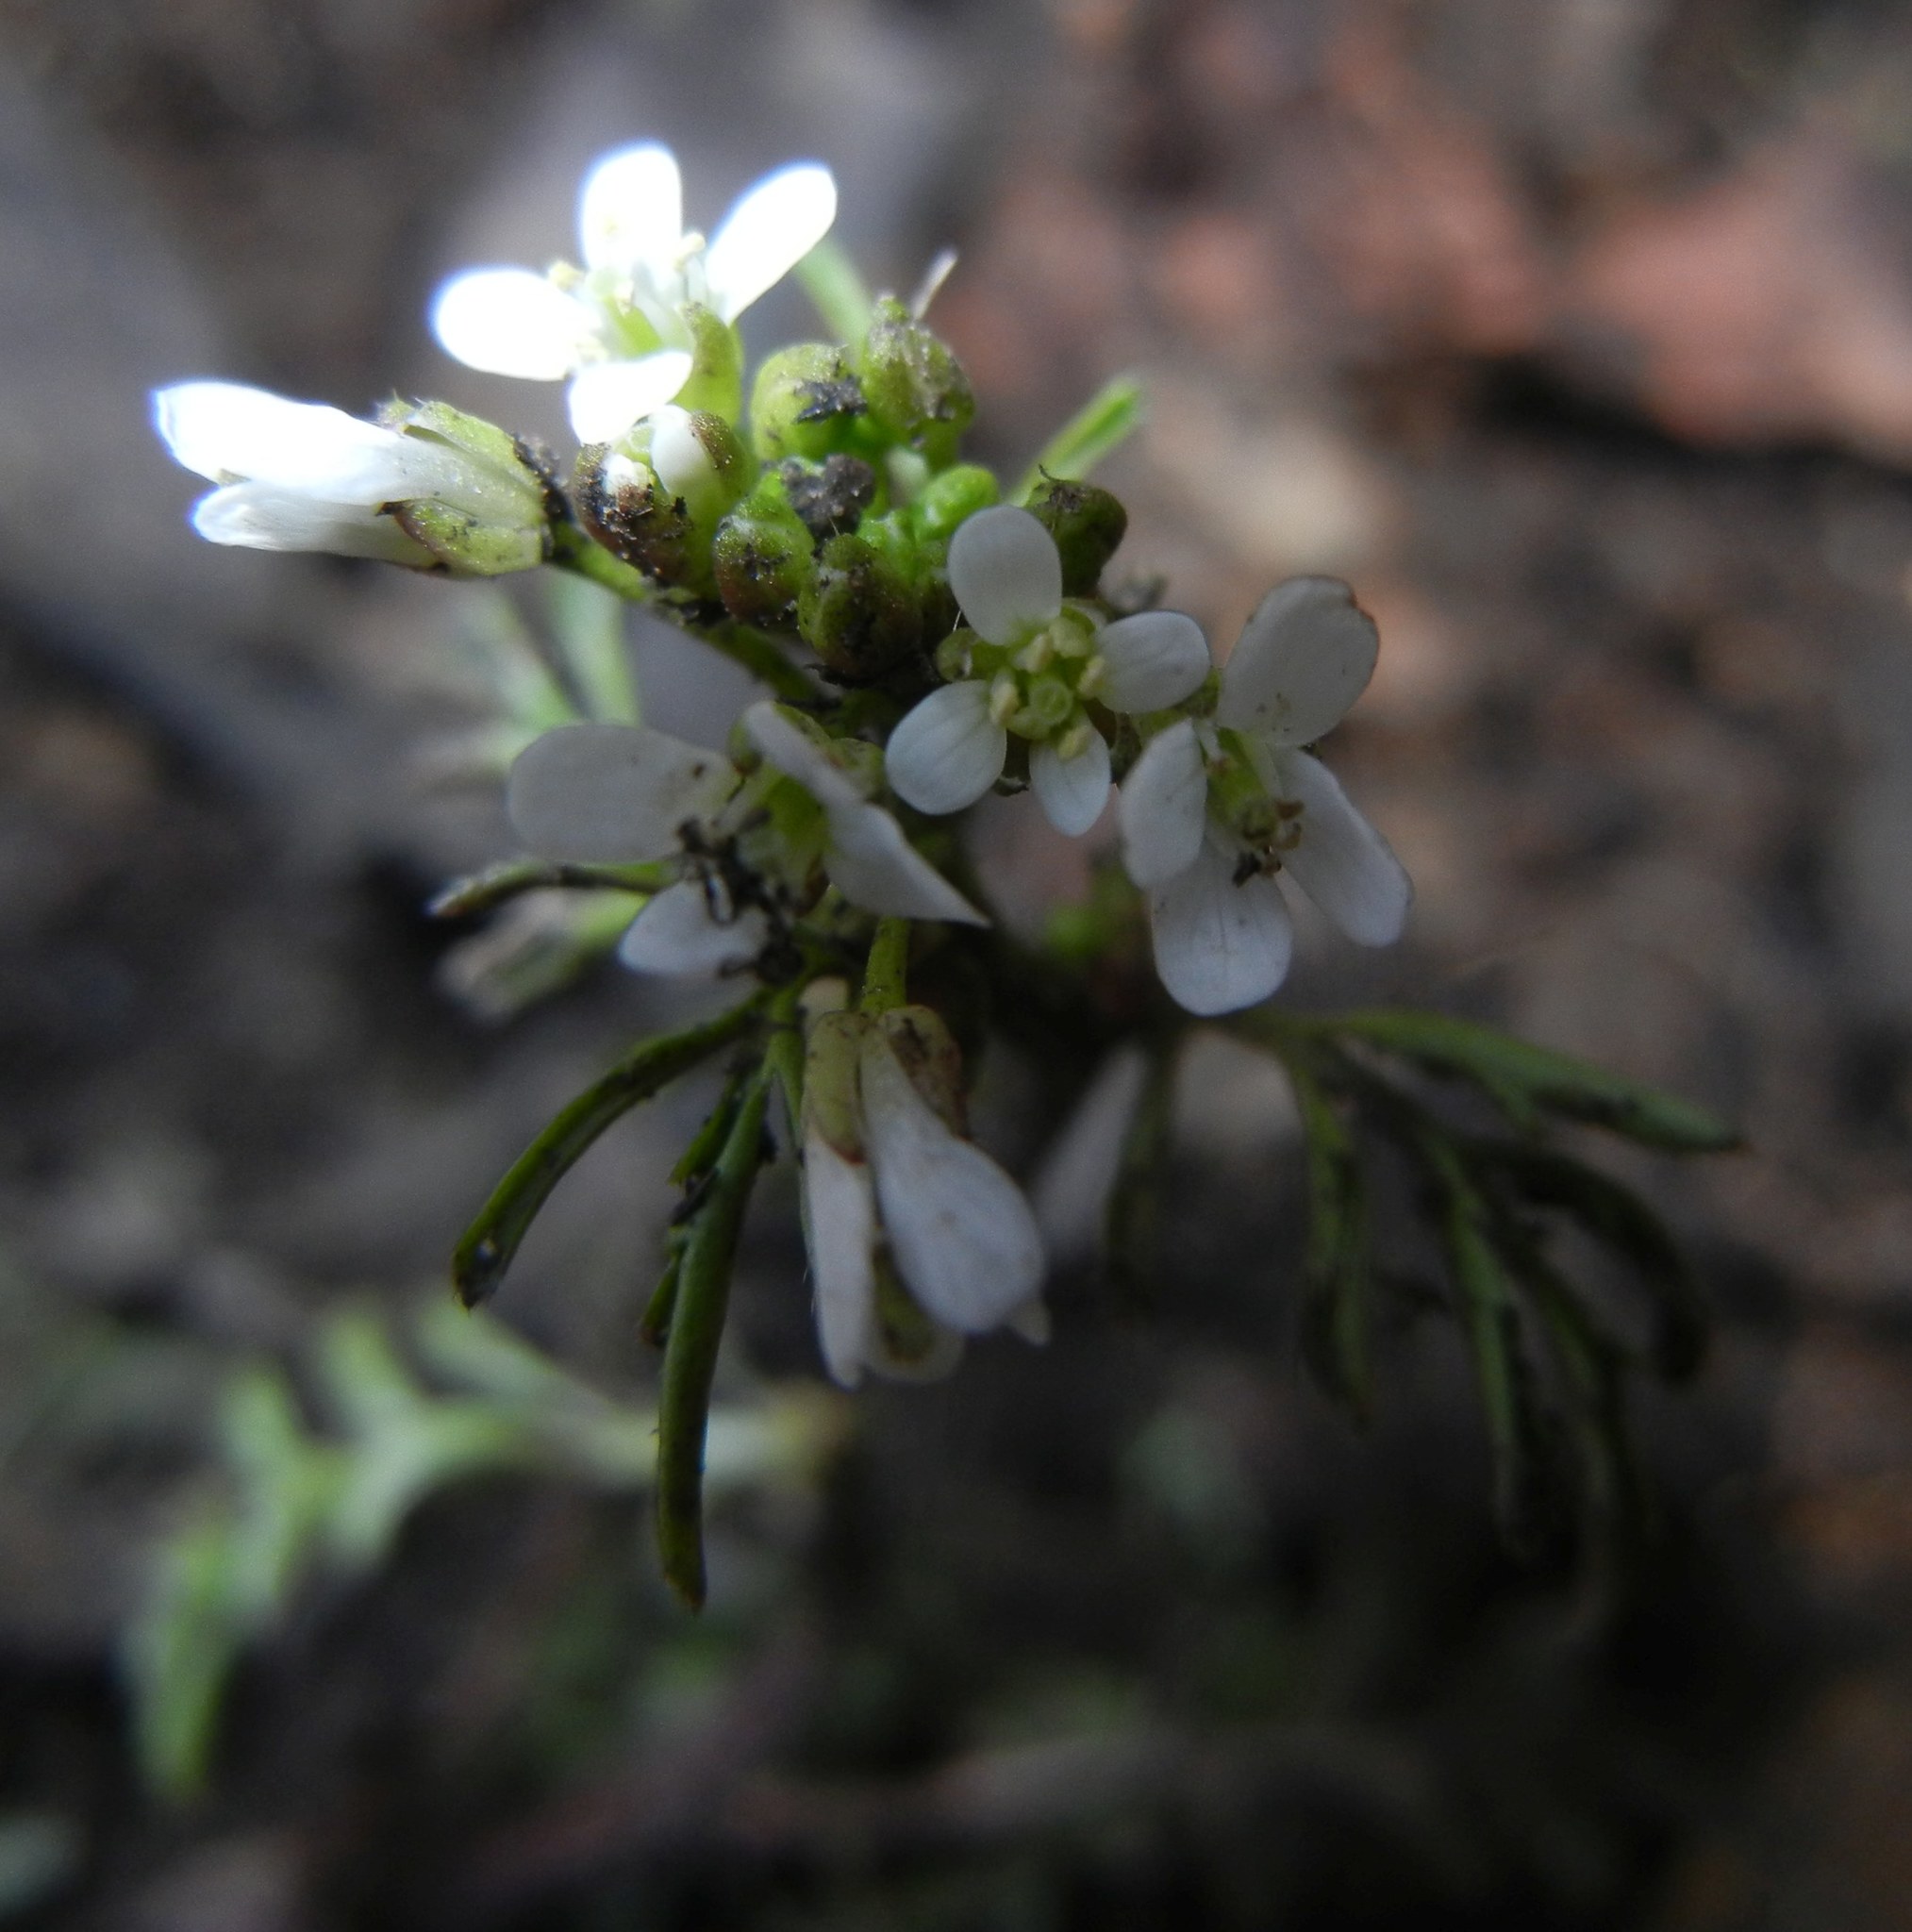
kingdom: Plantae
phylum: Tracheophyta
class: Magnoliopsida
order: Brassicales
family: Brassicaceae
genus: Cardamine
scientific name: Cardamine flexuosa
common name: Woodland bittercress
